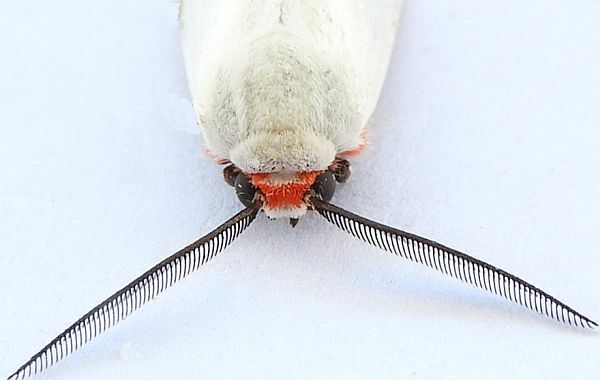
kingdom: Animalia
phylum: Arthropoda
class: Insecta
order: Lepidoptera
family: Erebidae
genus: Pygarctia
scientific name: Pygarctia roseicapitis
